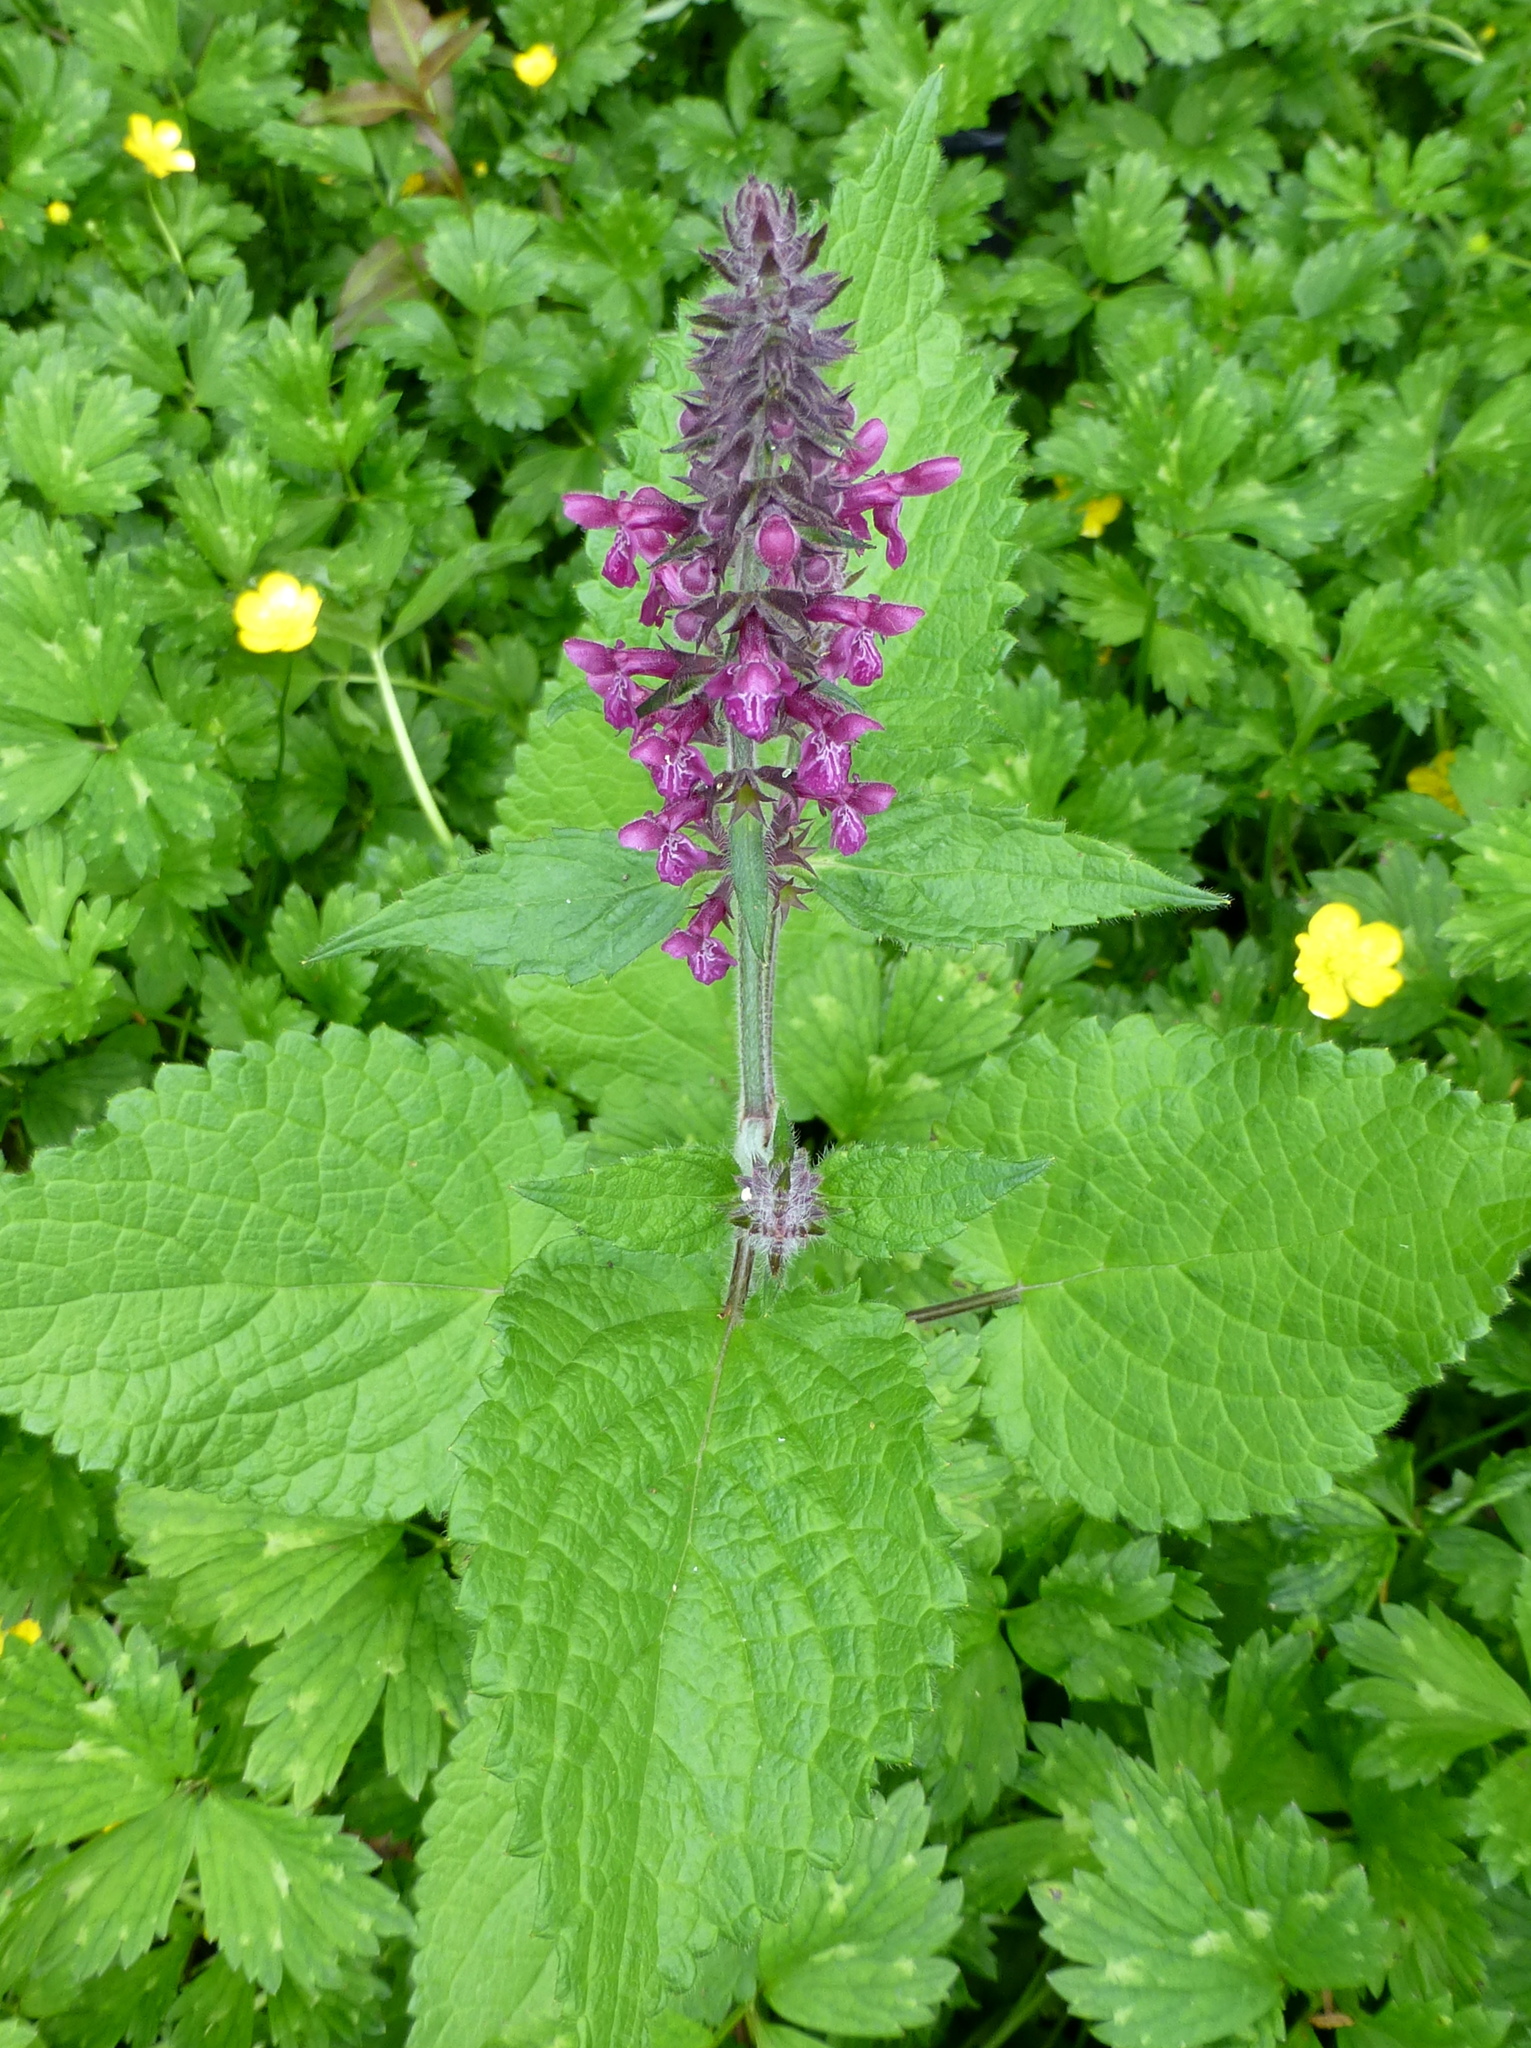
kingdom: Plantae
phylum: Tracheophyta
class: Magnoliopsida
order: Lamiales
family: Lamiaceae
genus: Stachys
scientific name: Stachys sylvatica
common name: Hedge woundwort
